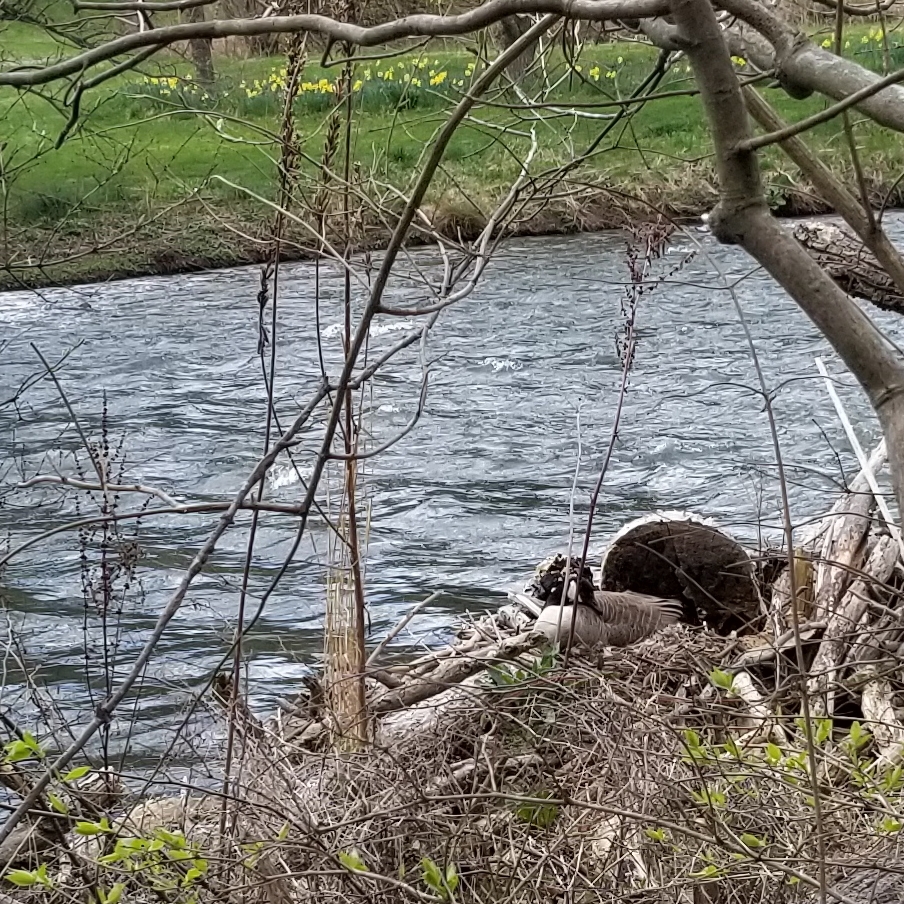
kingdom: Animalia
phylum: Chordata
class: Aves
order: Anseriformes
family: Anatidae
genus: Branta
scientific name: Branta canadensis
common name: Canada goose
